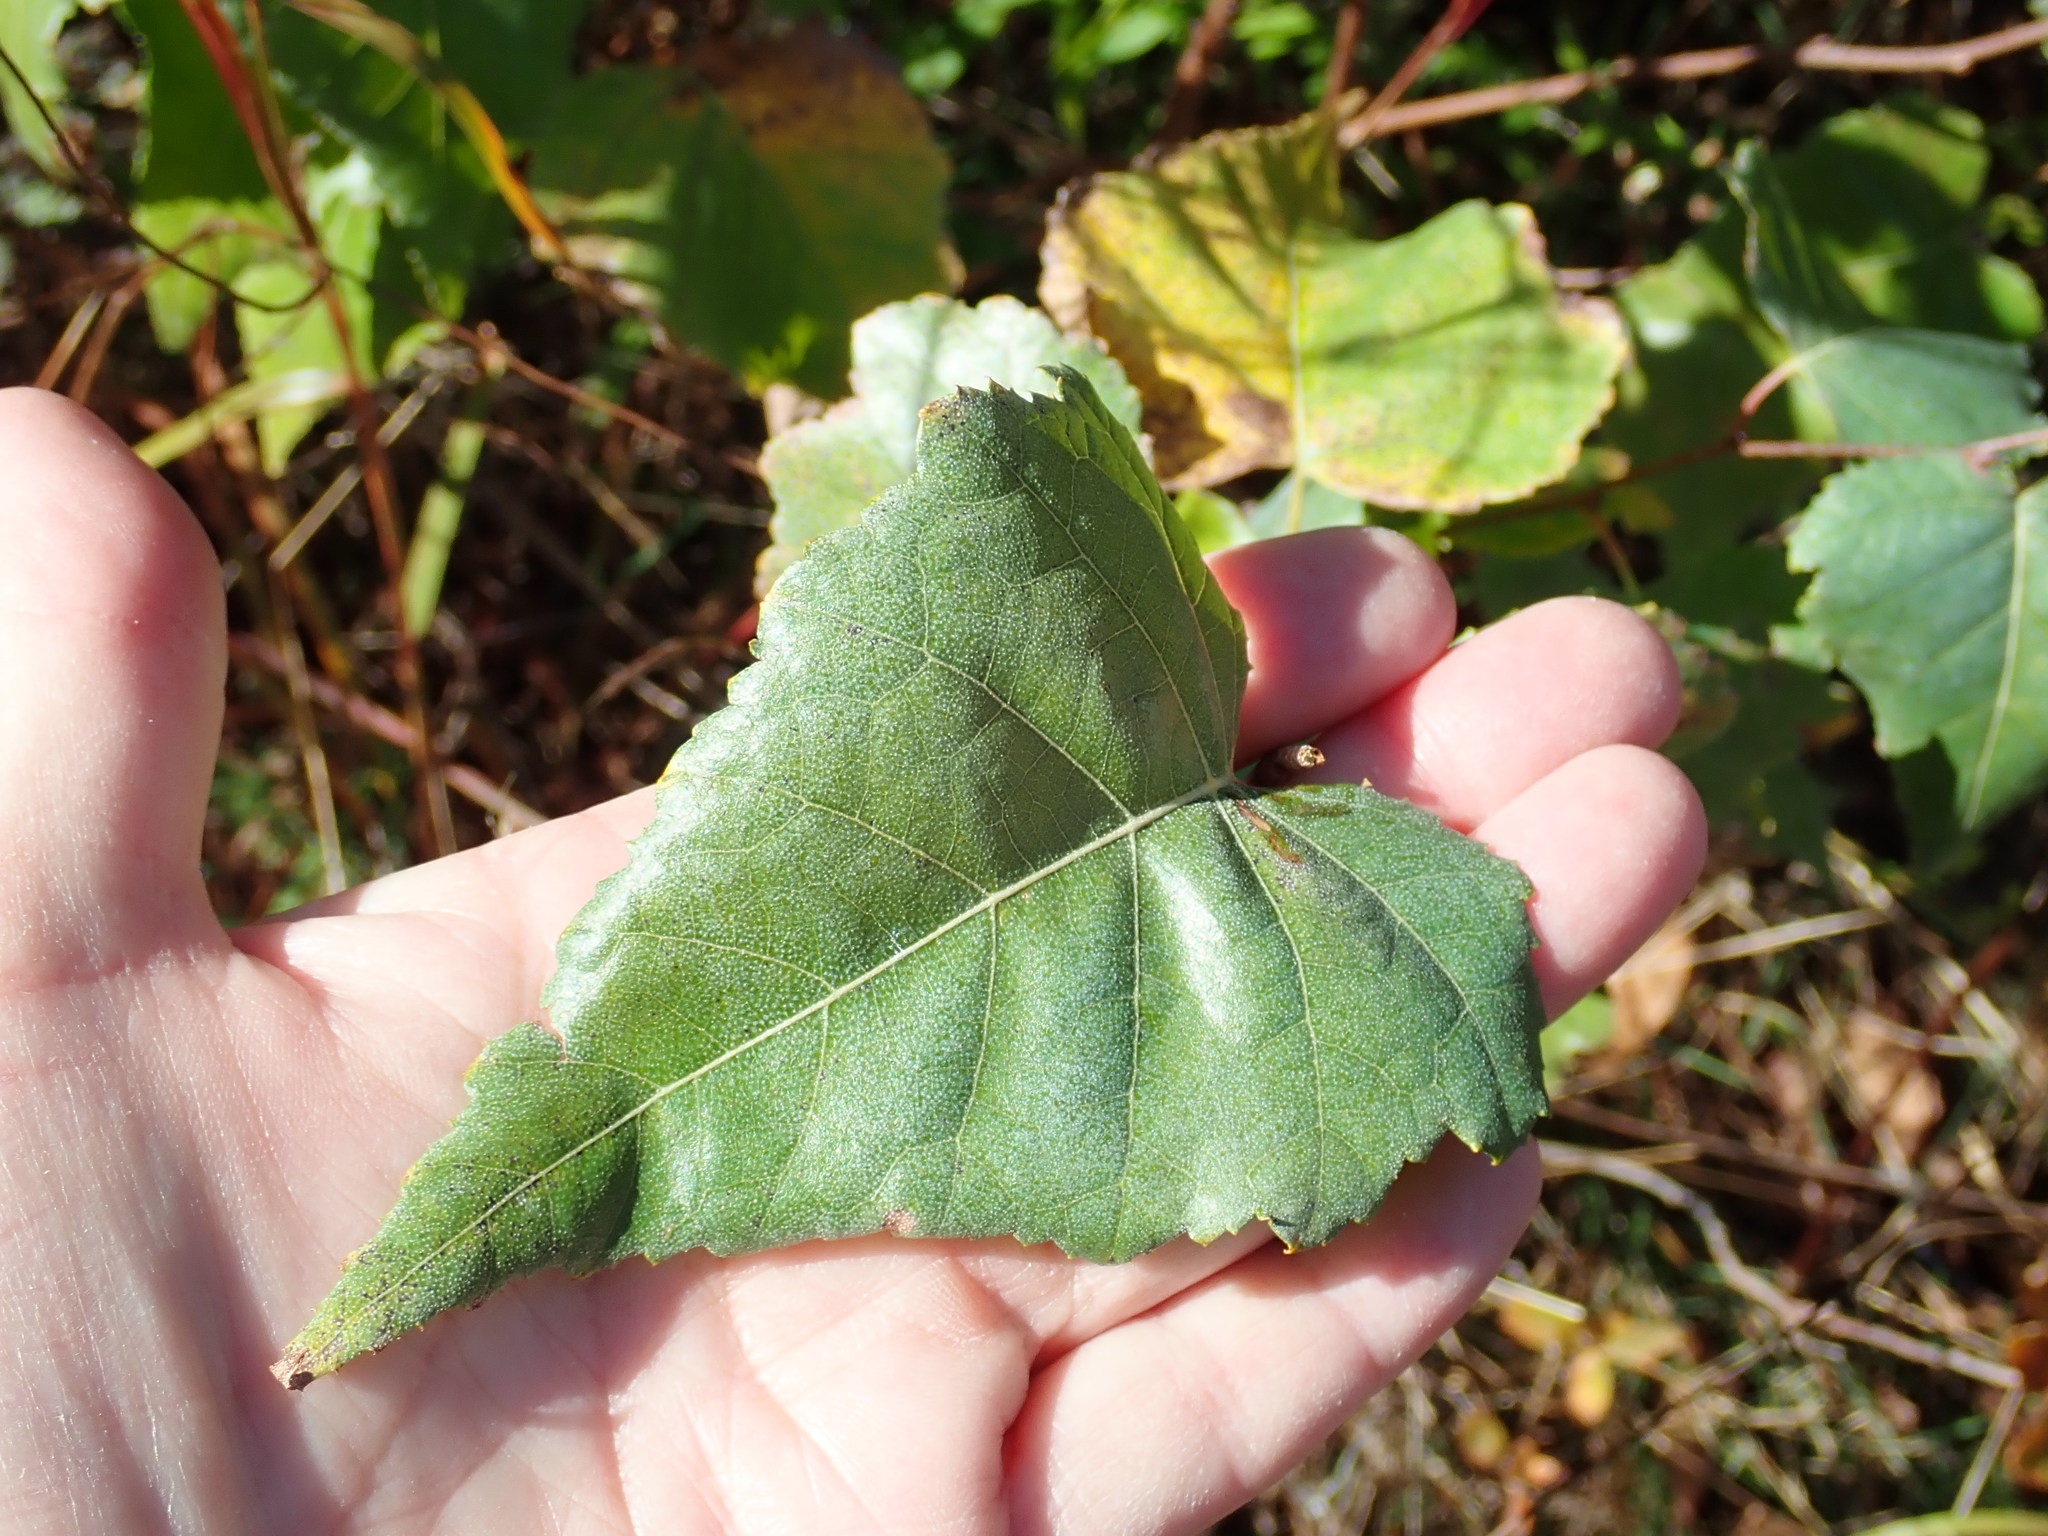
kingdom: Plantae
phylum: Tracheophyta
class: Magnoliopsida
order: Fagales
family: Betulaceae
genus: Betula
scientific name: Betula populifolia
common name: Fire birch
